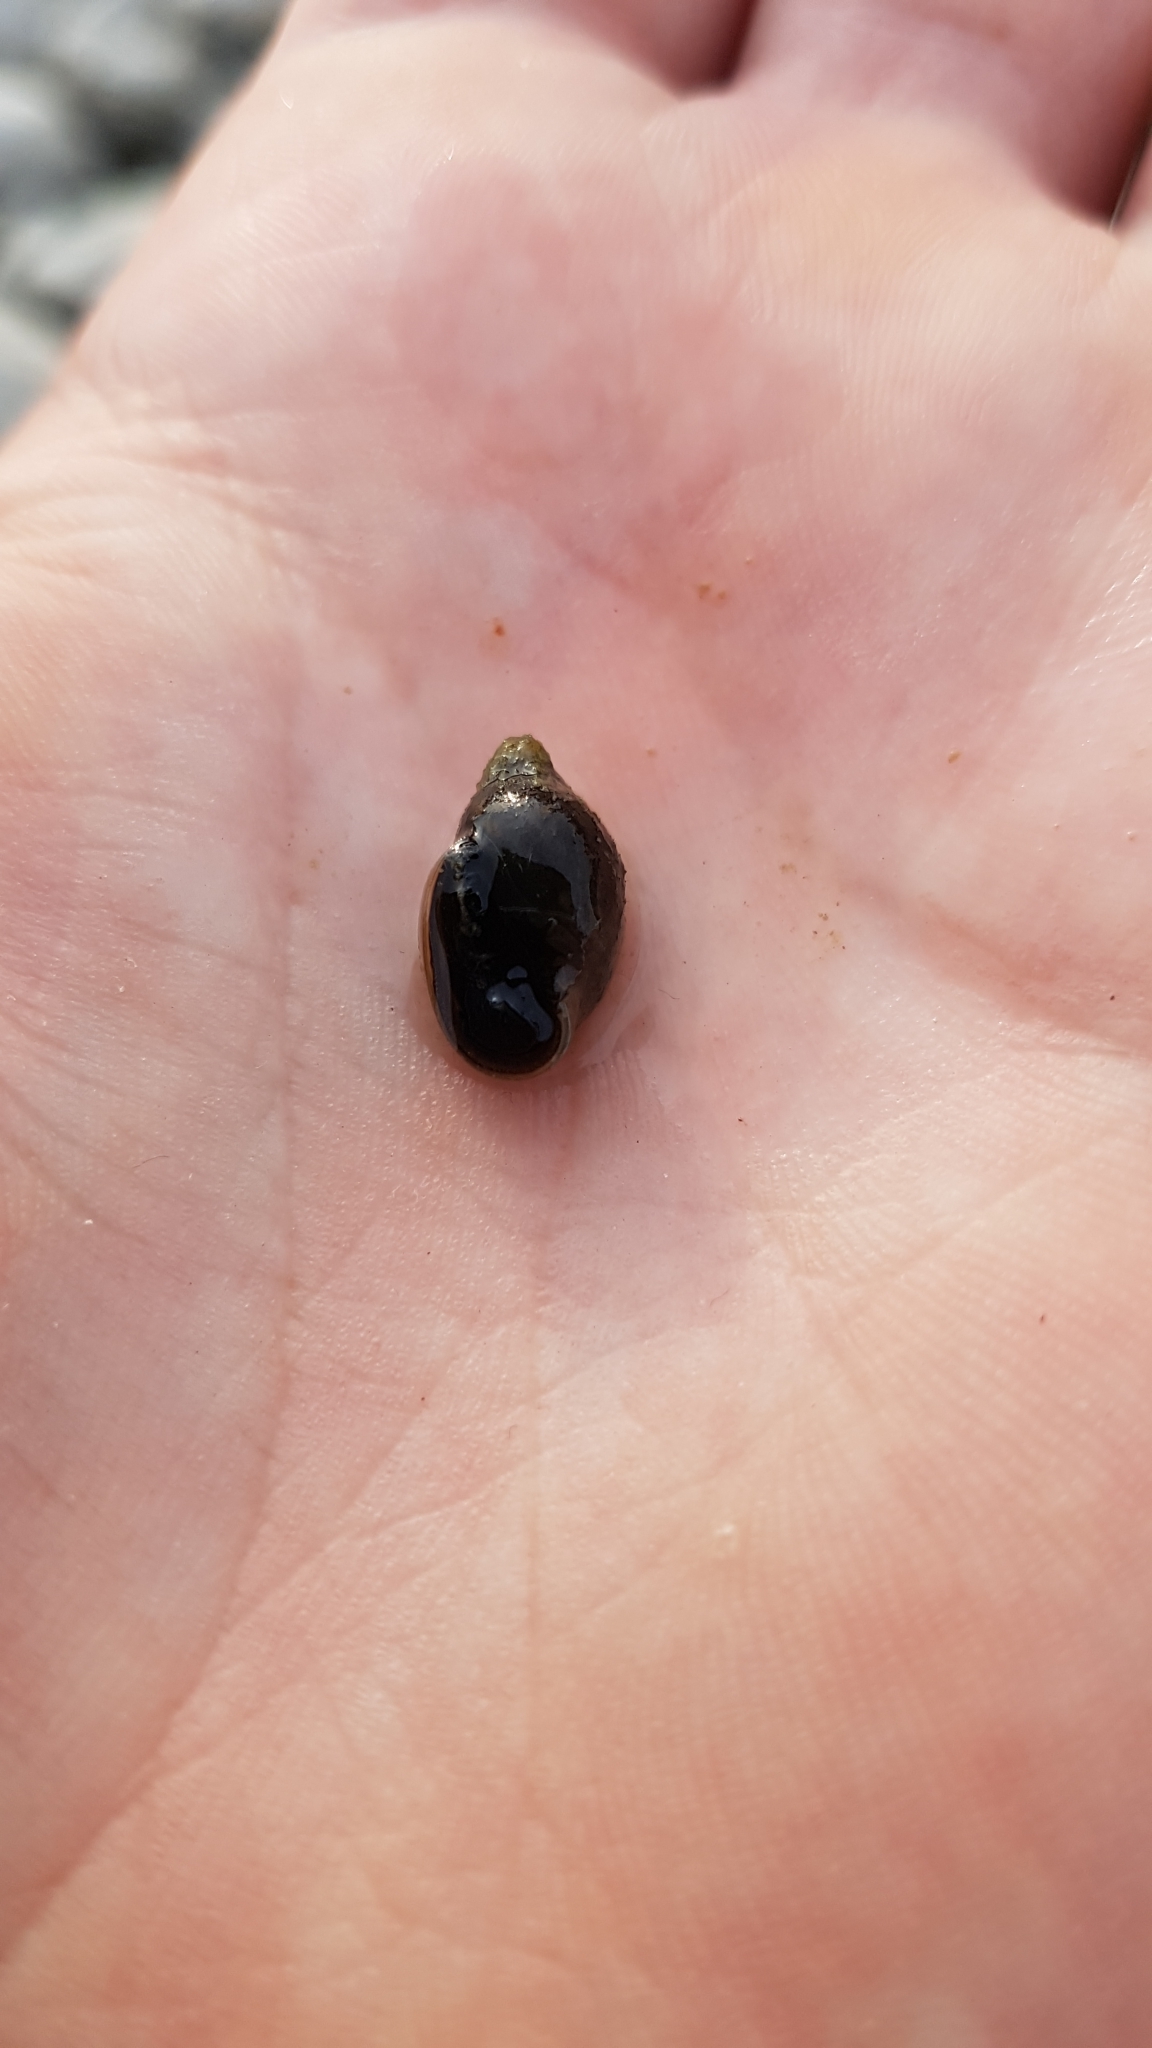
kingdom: Animalia
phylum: Mollusca
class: Gastropoda
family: Physidae
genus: Physella
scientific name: Physella acuta
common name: European physa
